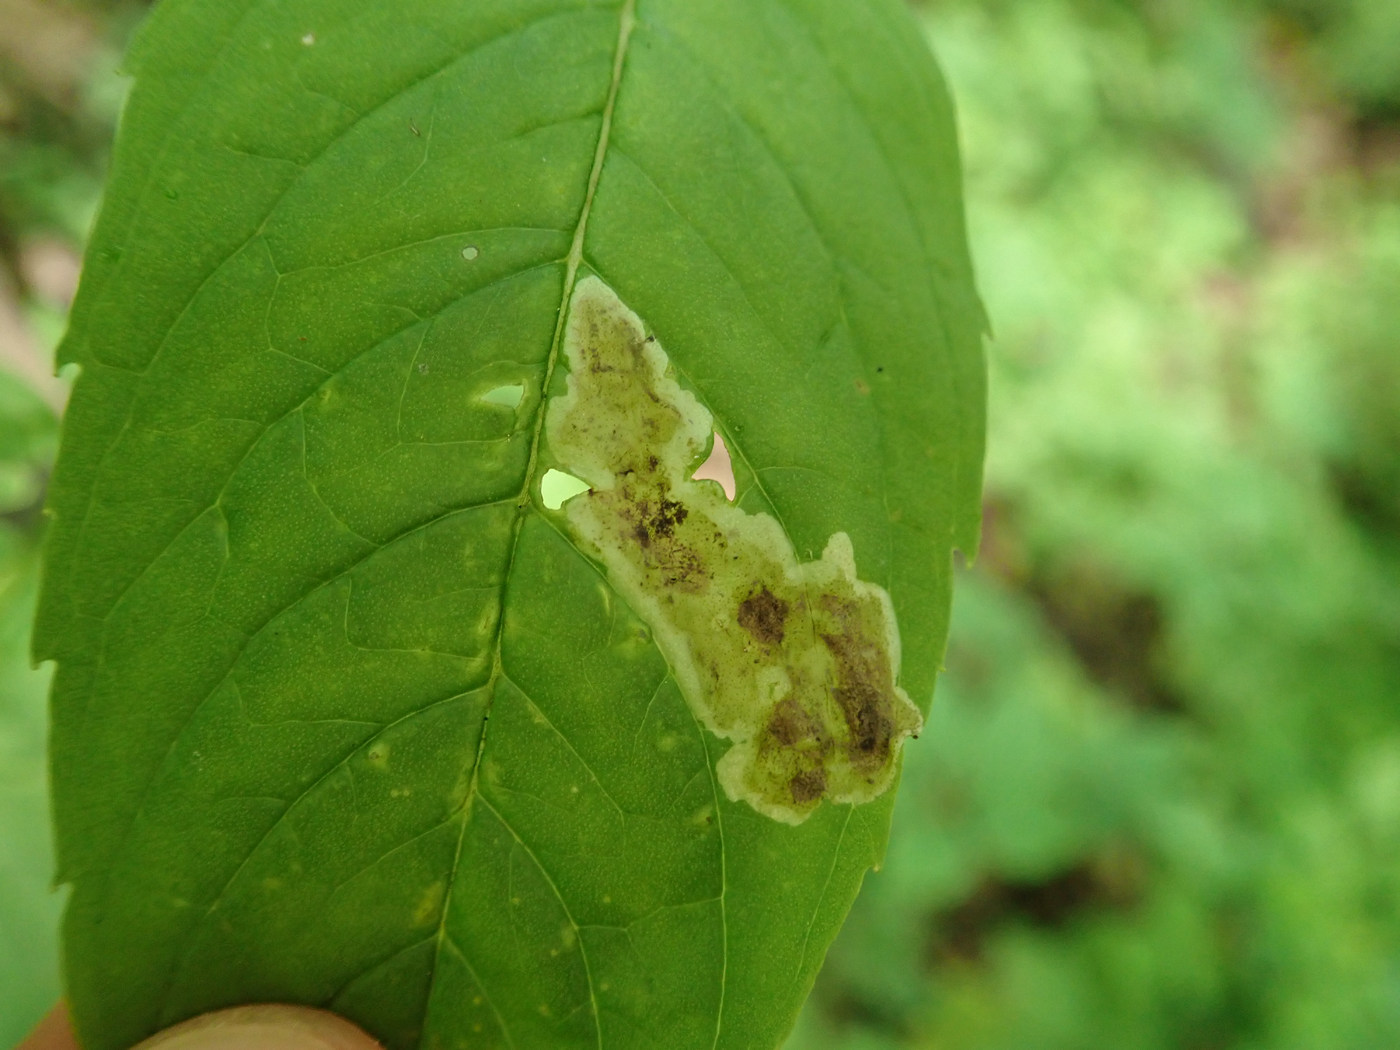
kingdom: Animalia
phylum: Arthropoda
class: Insecta
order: Diptera
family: Agromyzidae
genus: Calycomyza
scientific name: Calycomyza menthae
